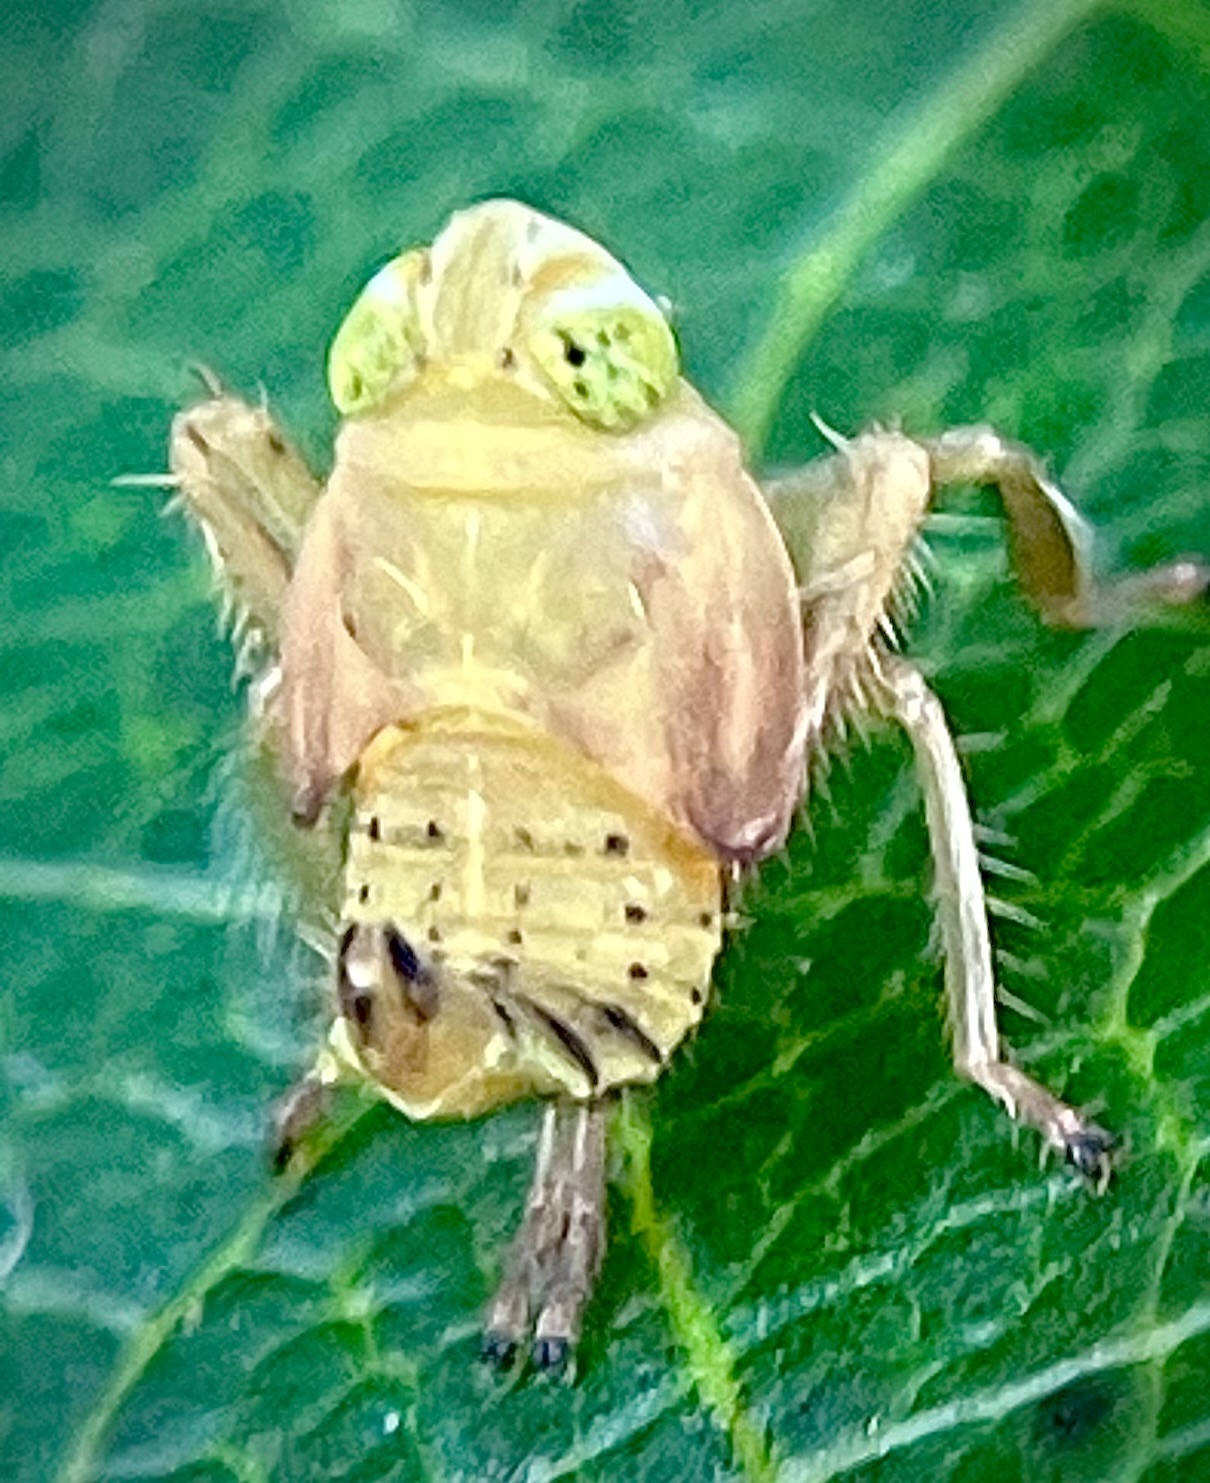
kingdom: Animalia
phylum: Arthropoda
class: Insecta
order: Hemiptera
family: Cicadellidae
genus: Jikradia
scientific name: Jikradia olitoria
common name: Coppery leafhopper
